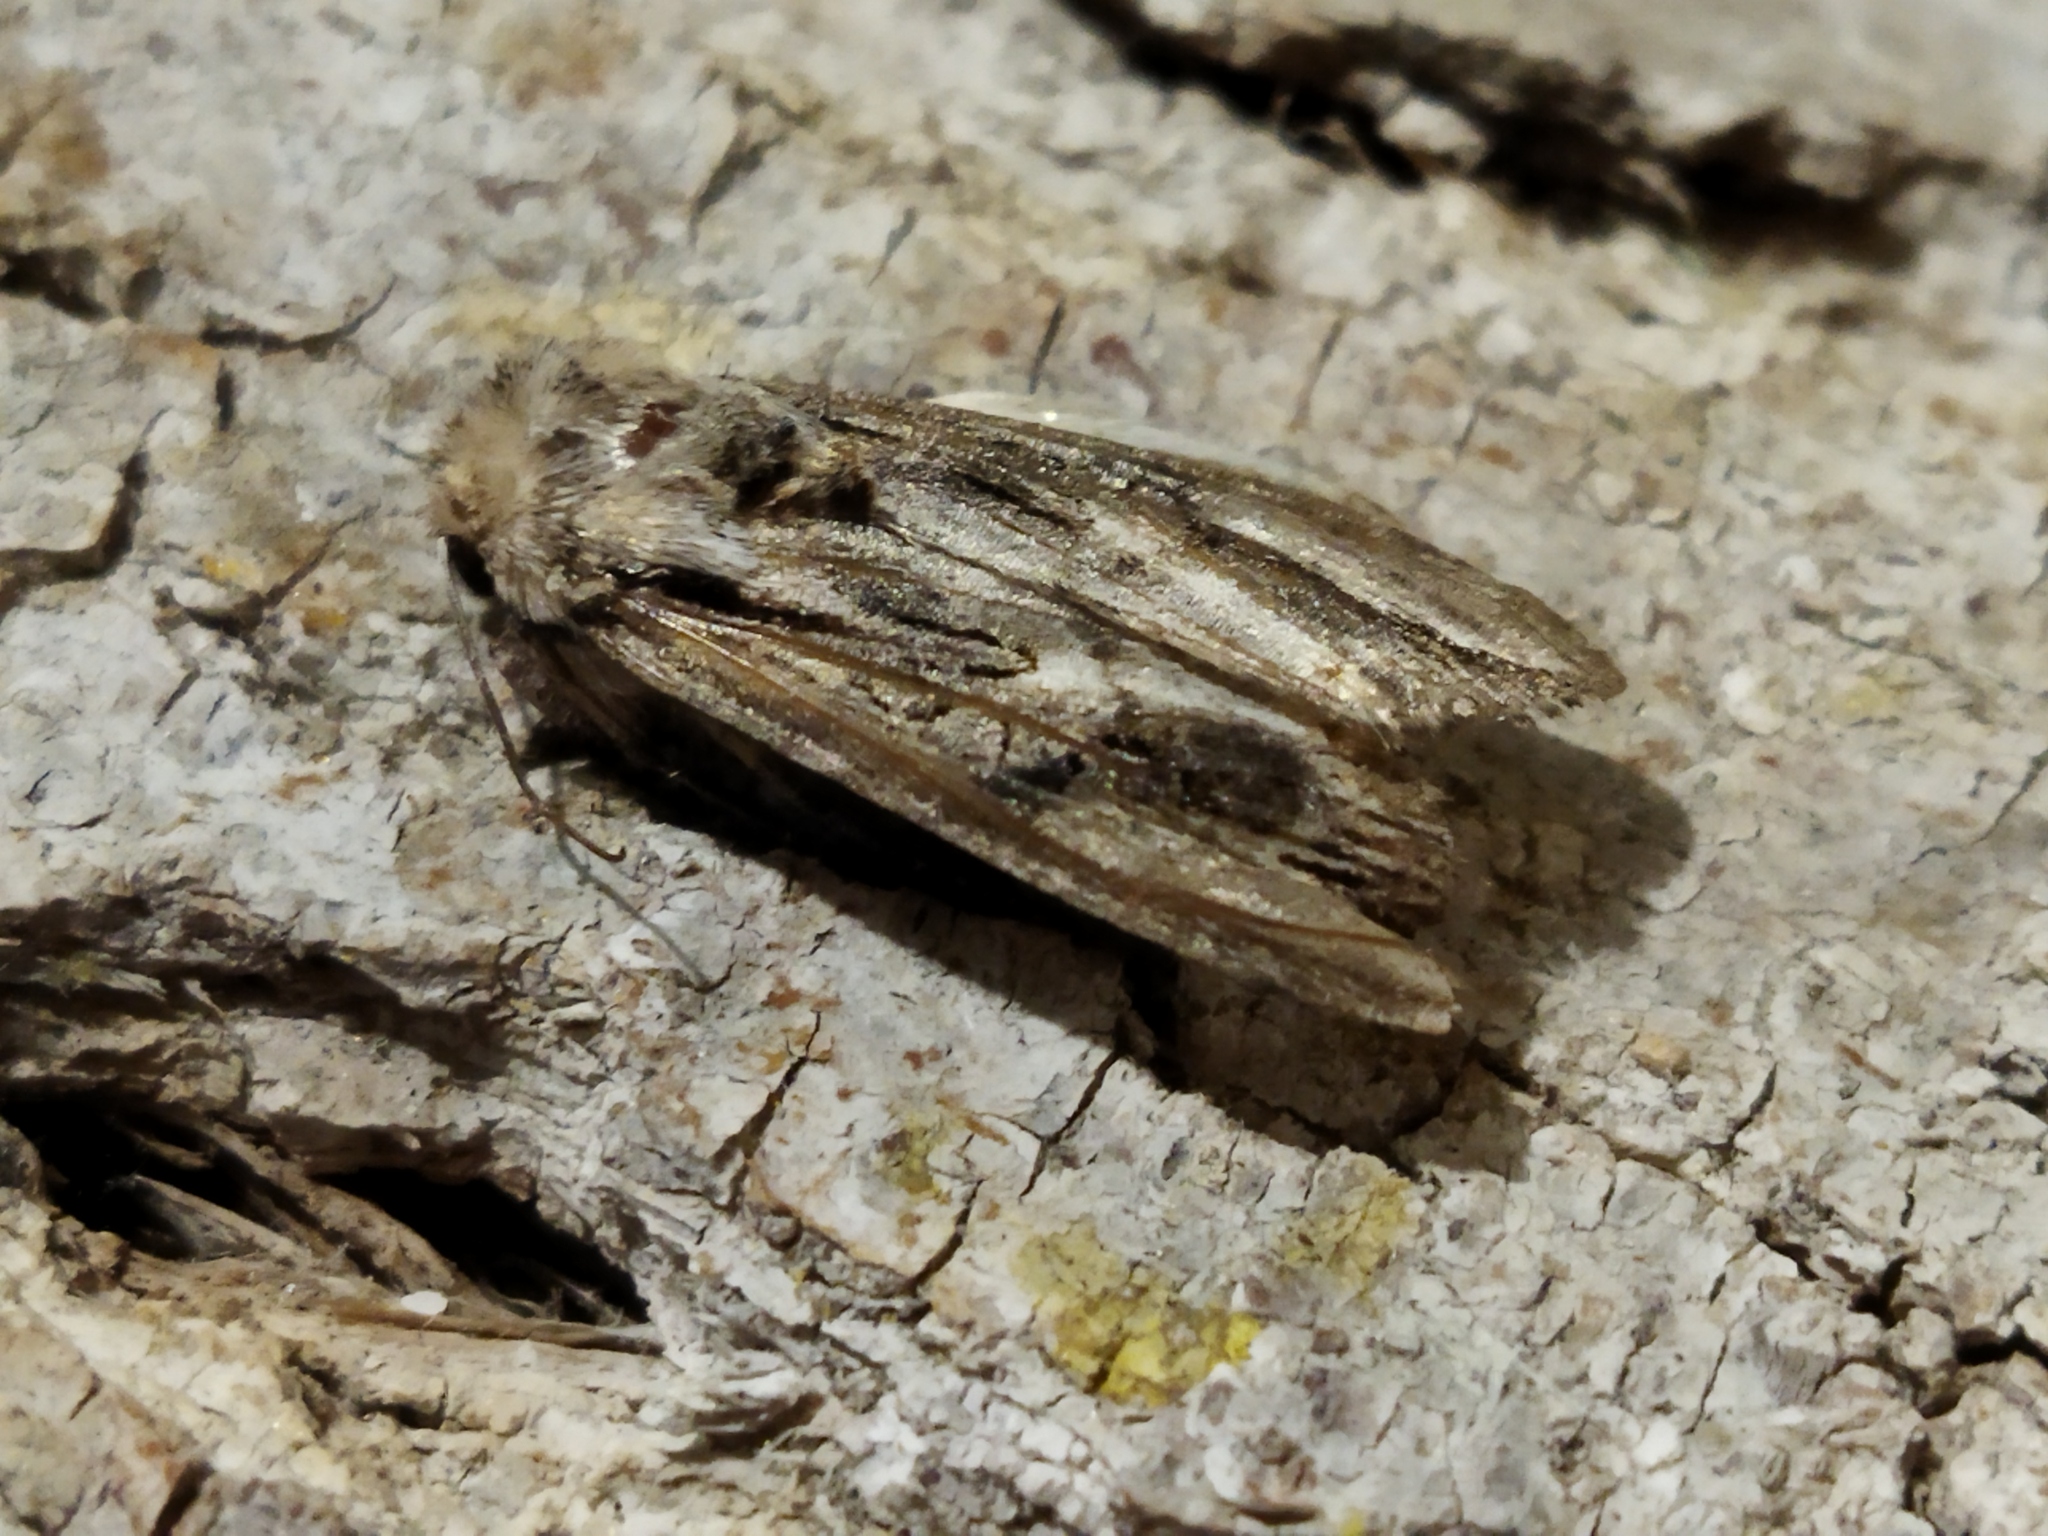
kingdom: Animalia
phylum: Arthropoda
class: Insecta
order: Lepidoptera
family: Noctuidae
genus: Egira
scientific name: Egira
